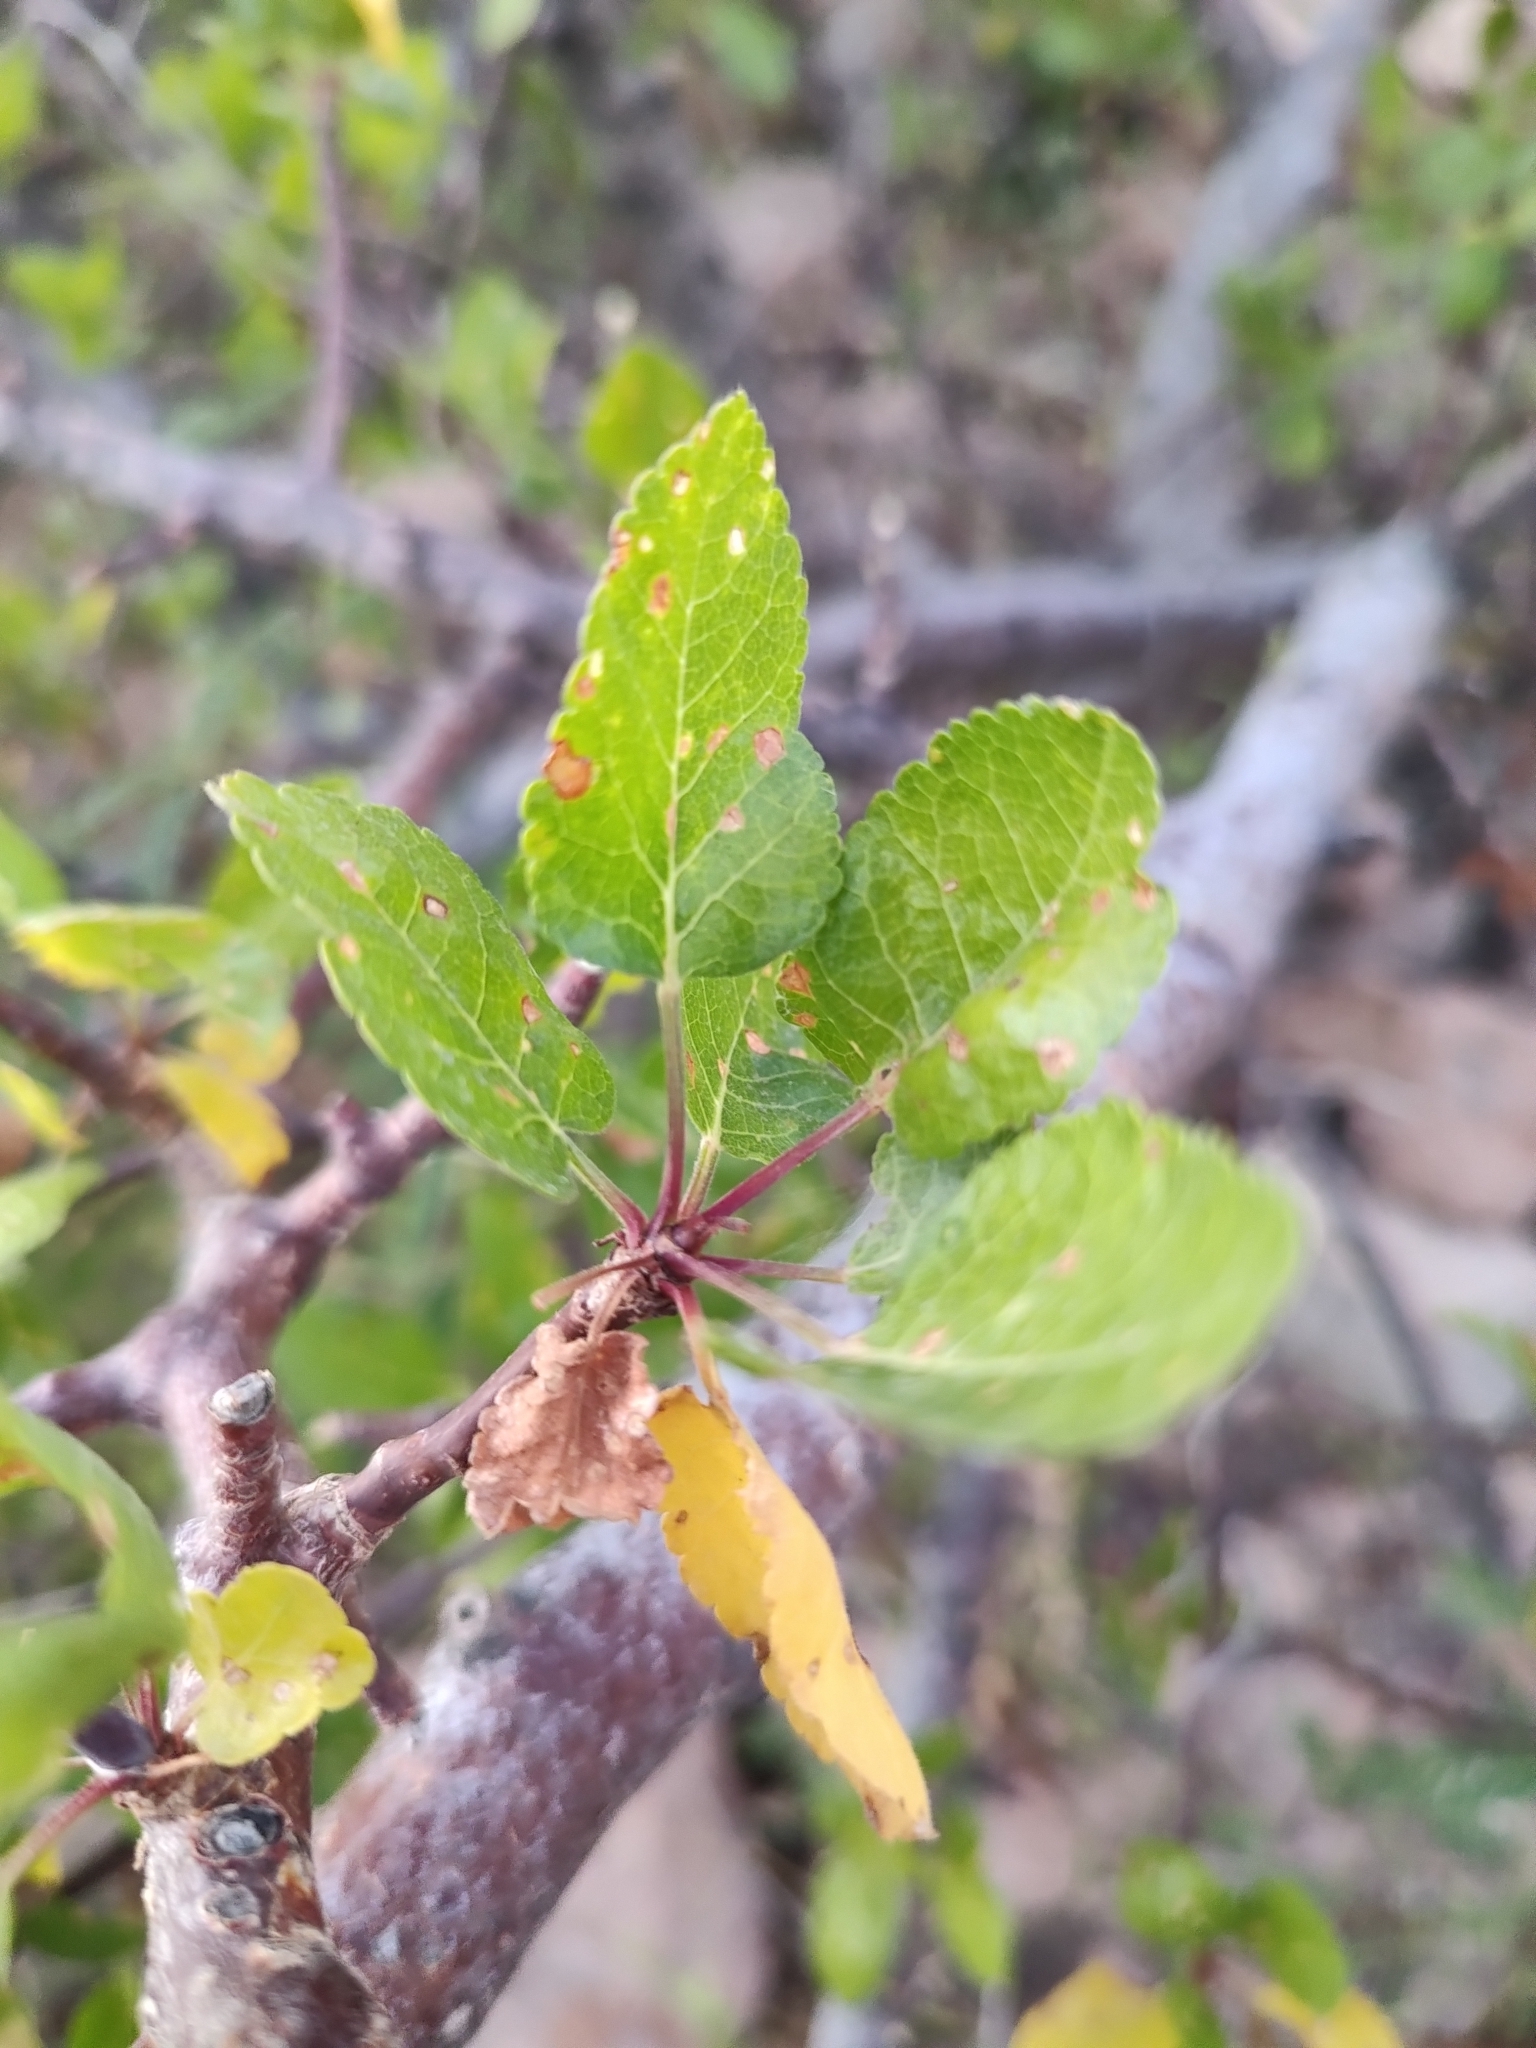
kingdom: Plantae
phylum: Tracheophyta
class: Magnoliopsida
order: Sapindales
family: Burseraceae
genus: Bursera
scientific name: Bursera epinnata
